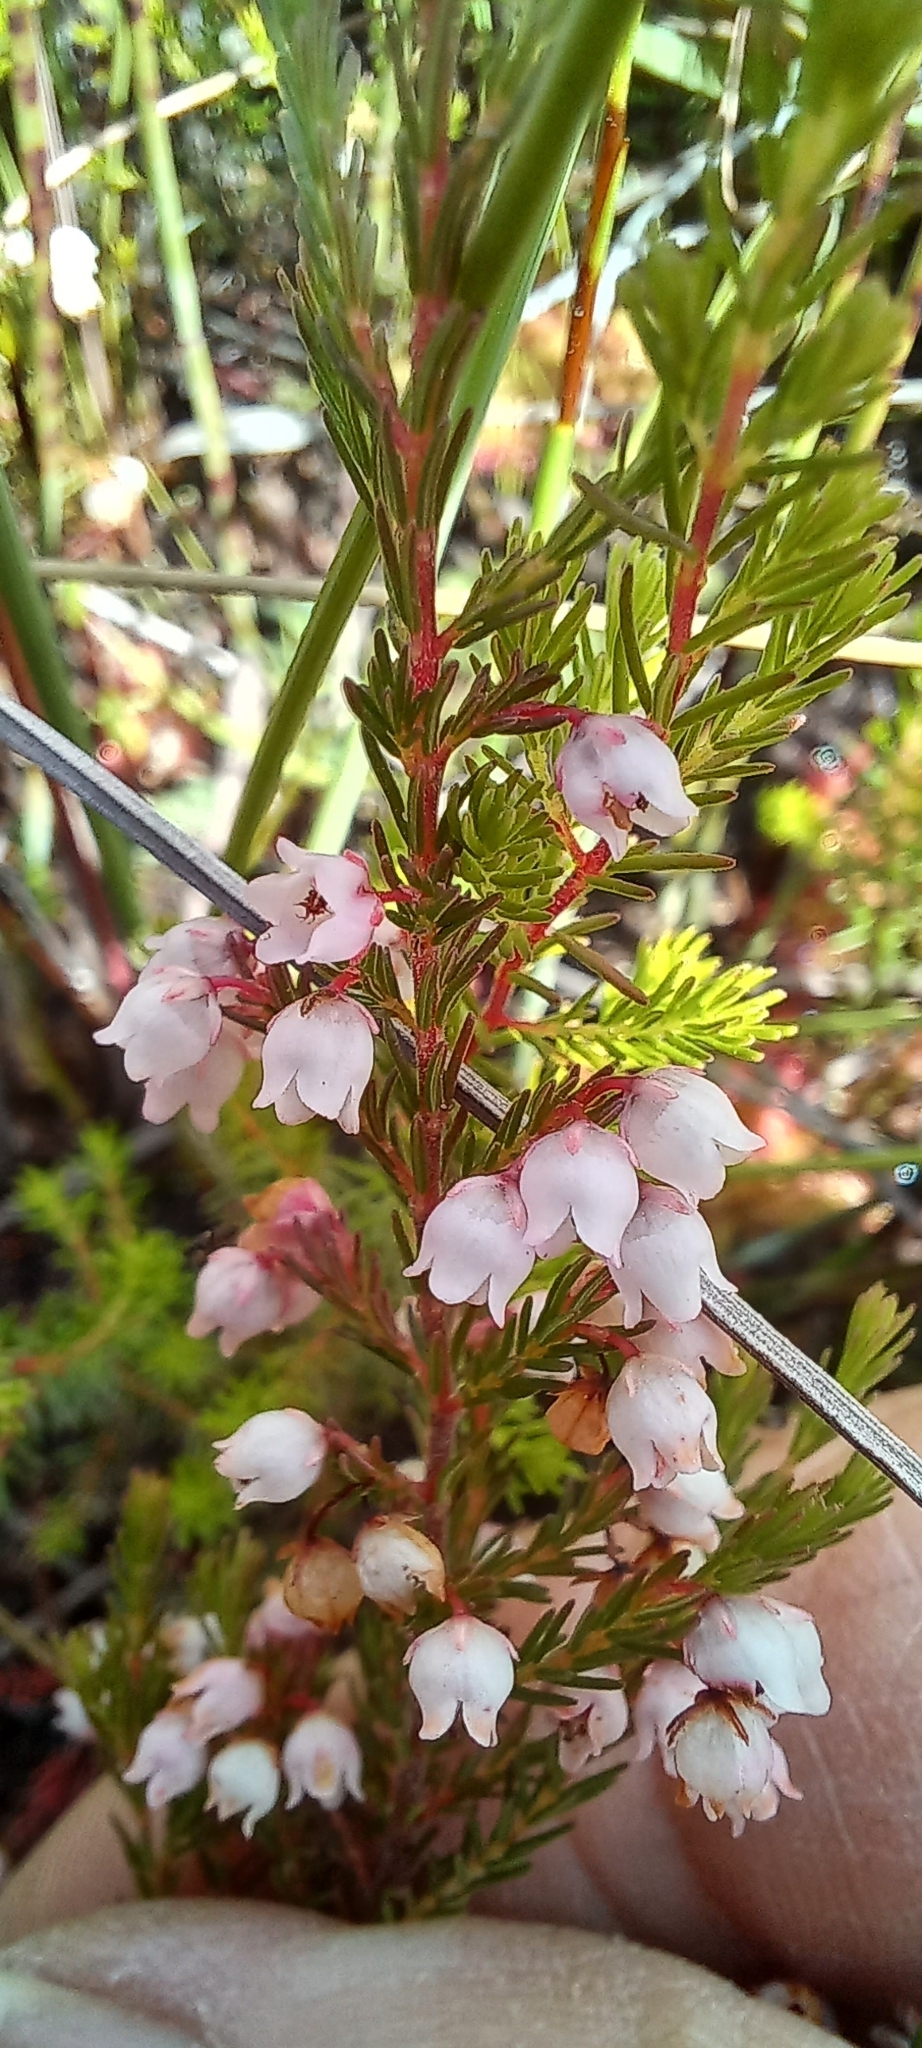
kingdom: Plantae
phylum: Tracheophyta
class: Magnoliopsida
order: Ericales
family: Ericaceae
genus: Erica
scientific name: Erica quadrangularis
